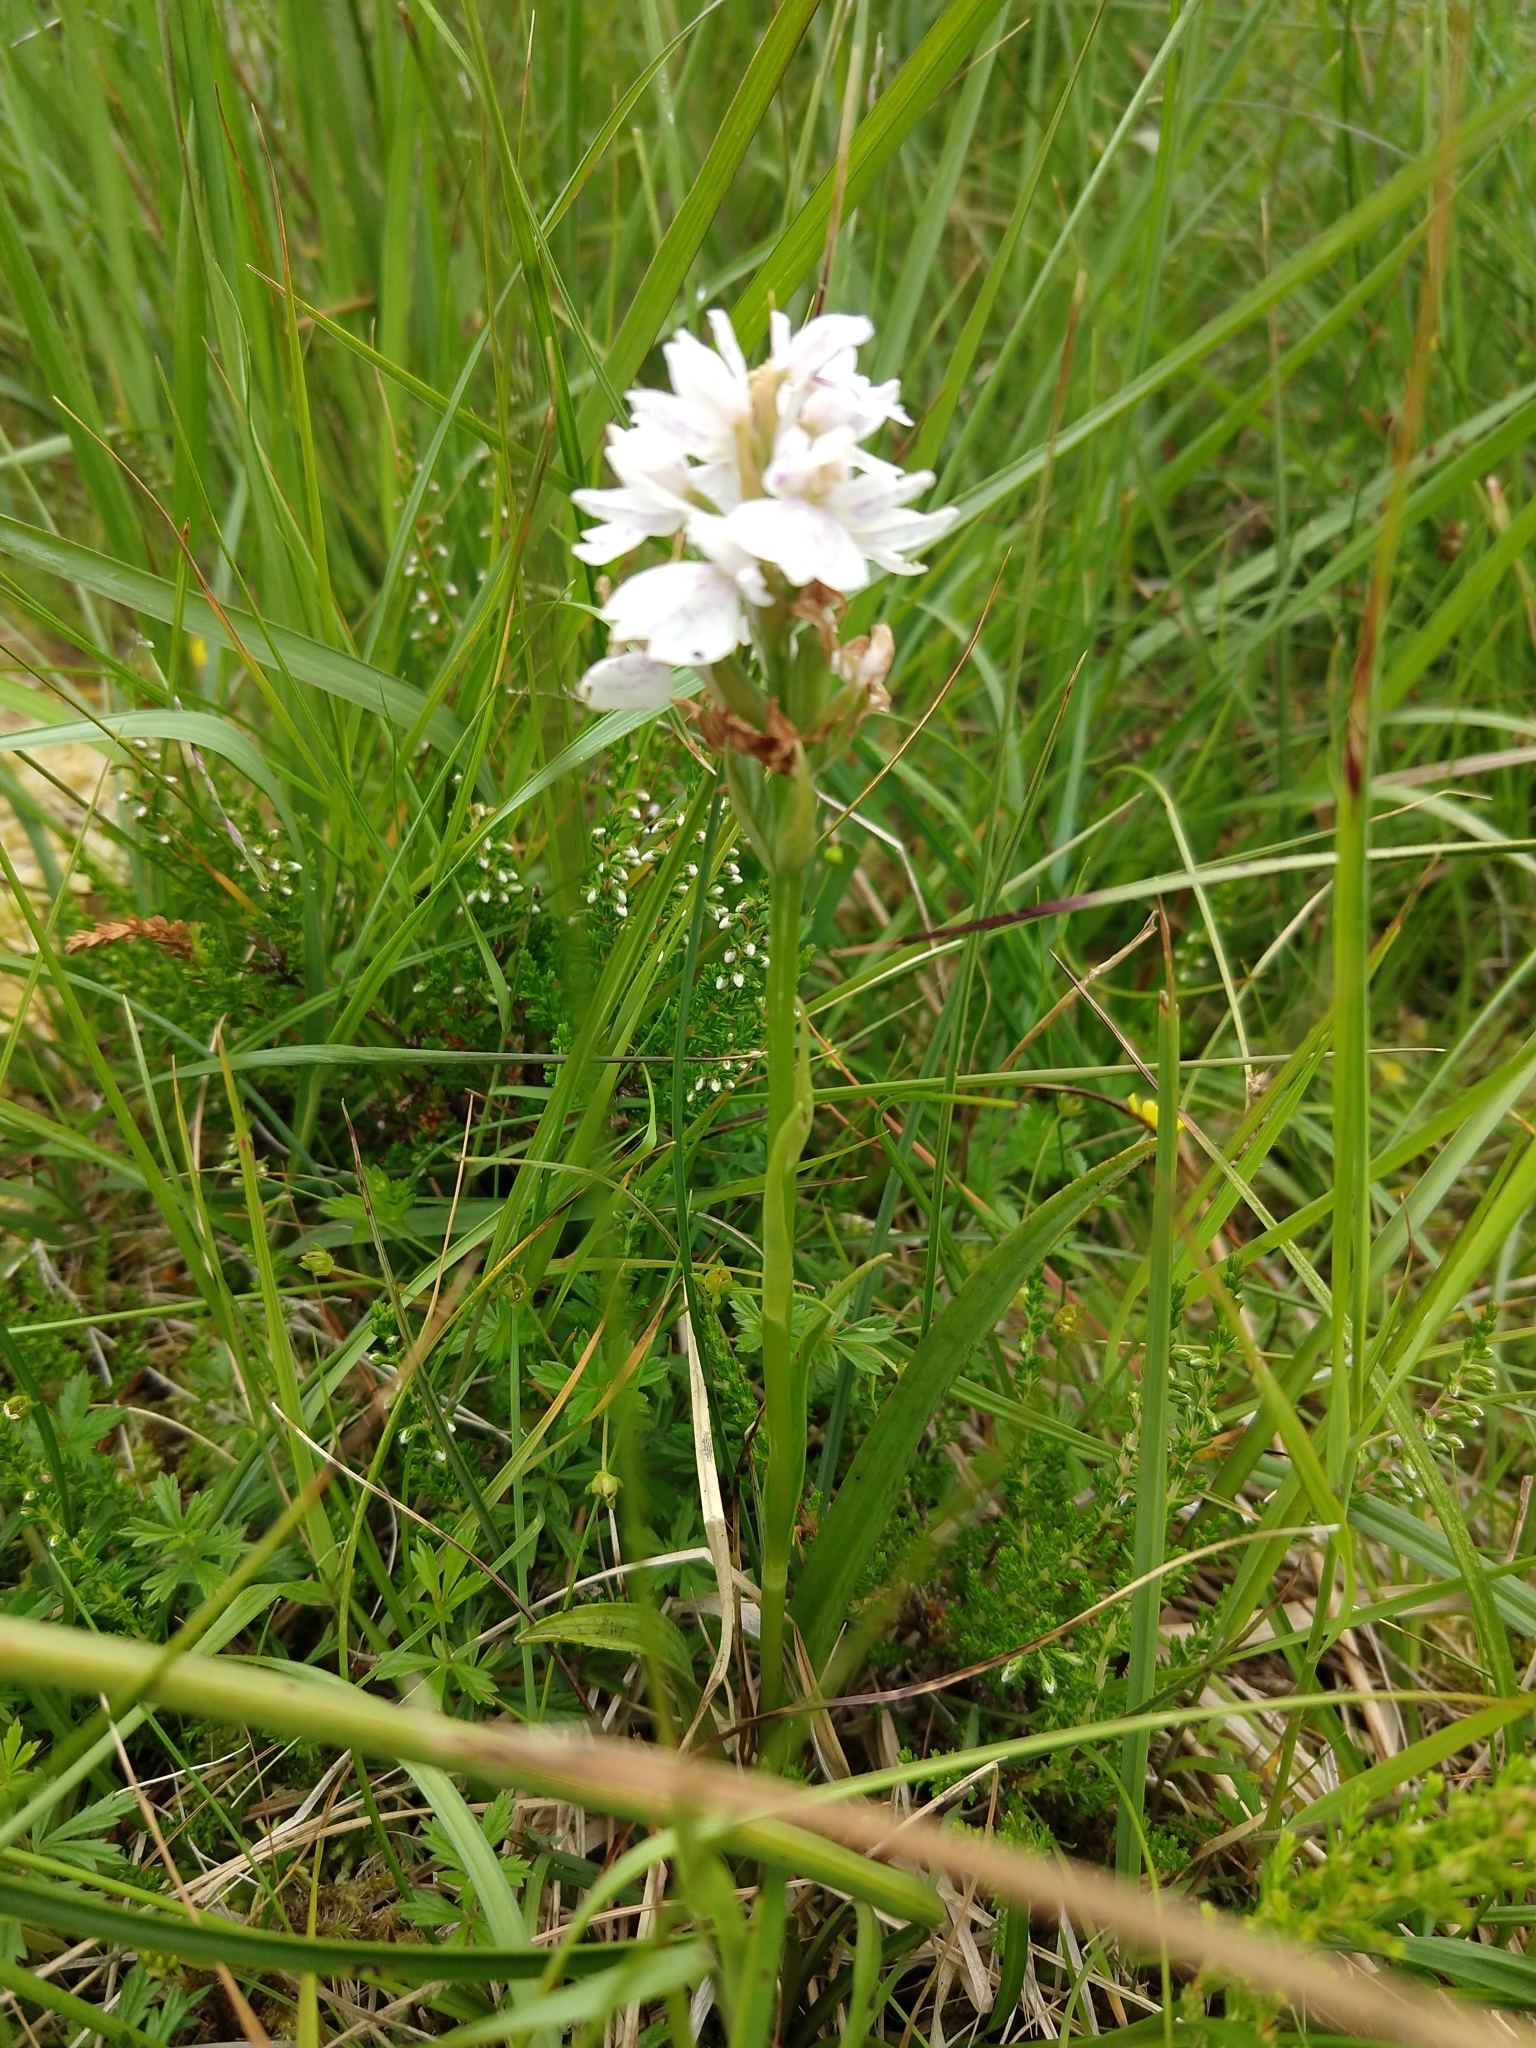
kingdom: Plantae
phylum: Tracheophyta
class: Liliopsida
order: Asparagales
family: Orchidaceae
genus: Dactylorhiza
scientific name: Dactylorhiza maculata
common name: Heath spotted-orchid
